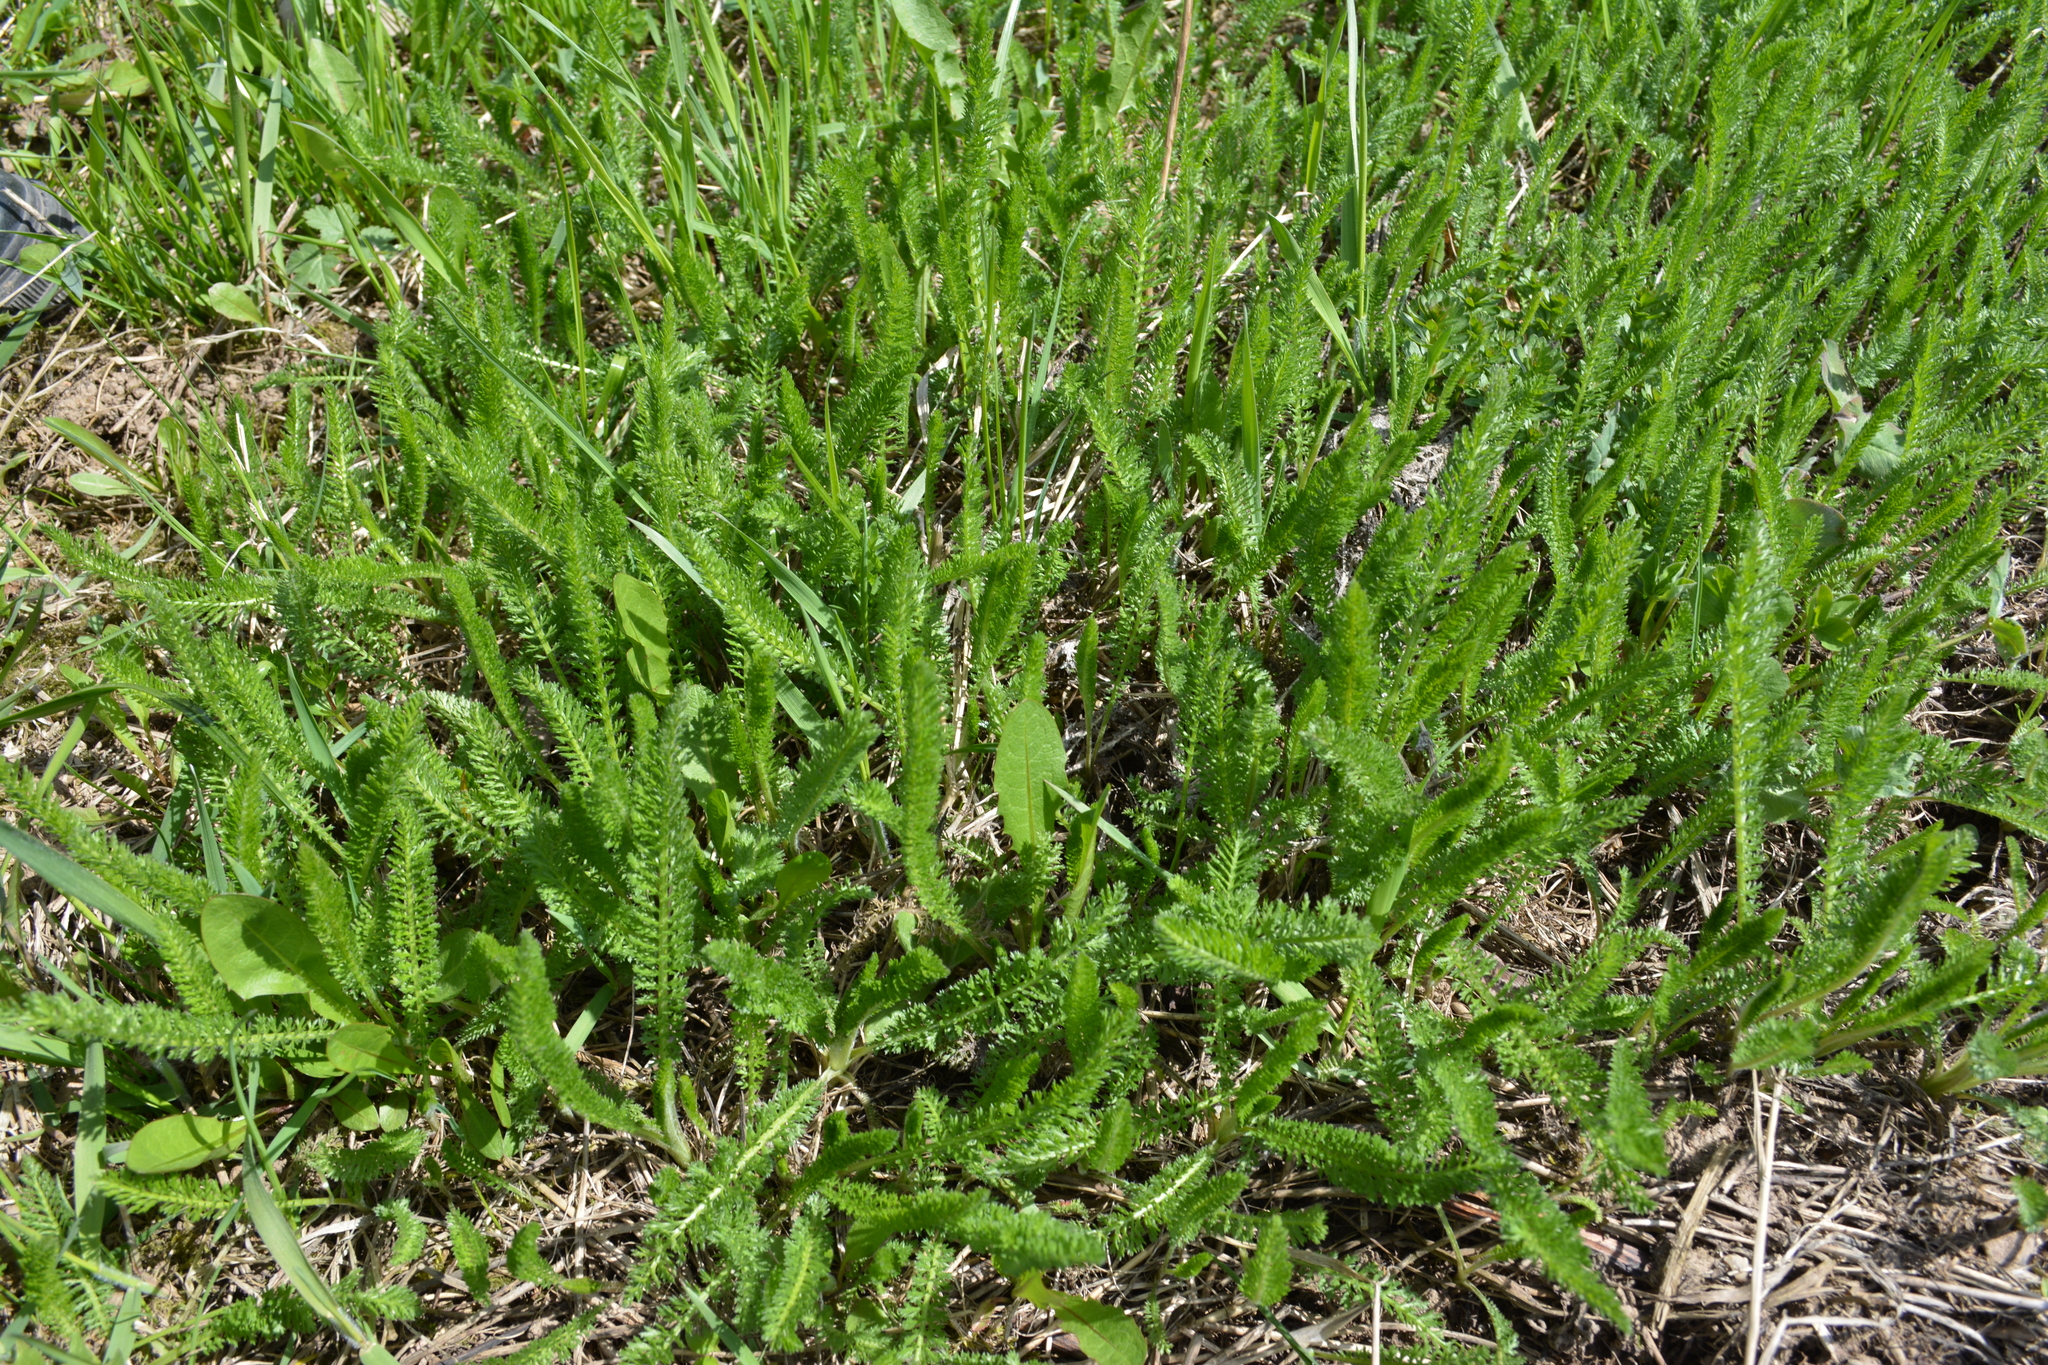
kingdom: Plantae
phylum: Tracheophyta
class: Magnoliopsida
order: Asterales
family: Asteraceae
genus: Achillea
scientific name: Achillea millefolium
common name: Yarrow
